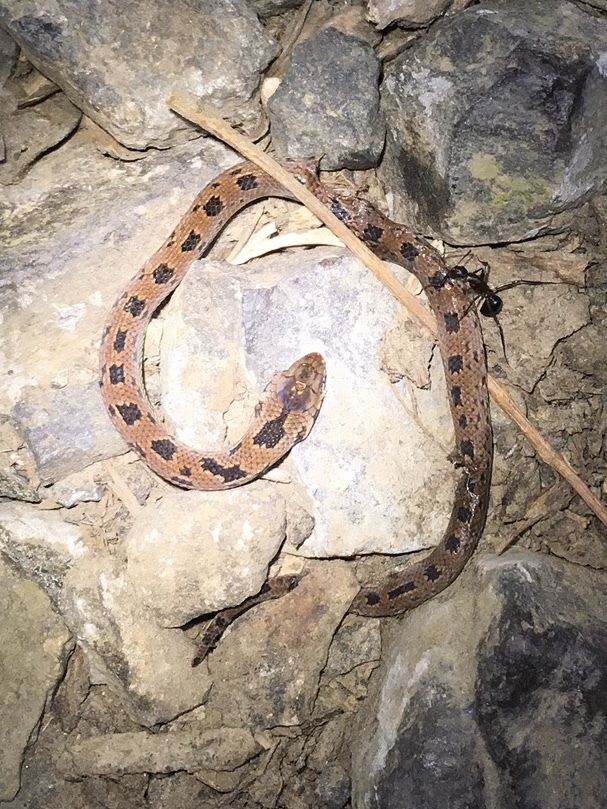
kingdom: Animalia
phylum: Chordata
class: Squamata
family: Colubridae
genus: Stenorrhina
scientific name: Stenorrhina degenhardtii
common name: Degenhardt's scorpion-eating snake
